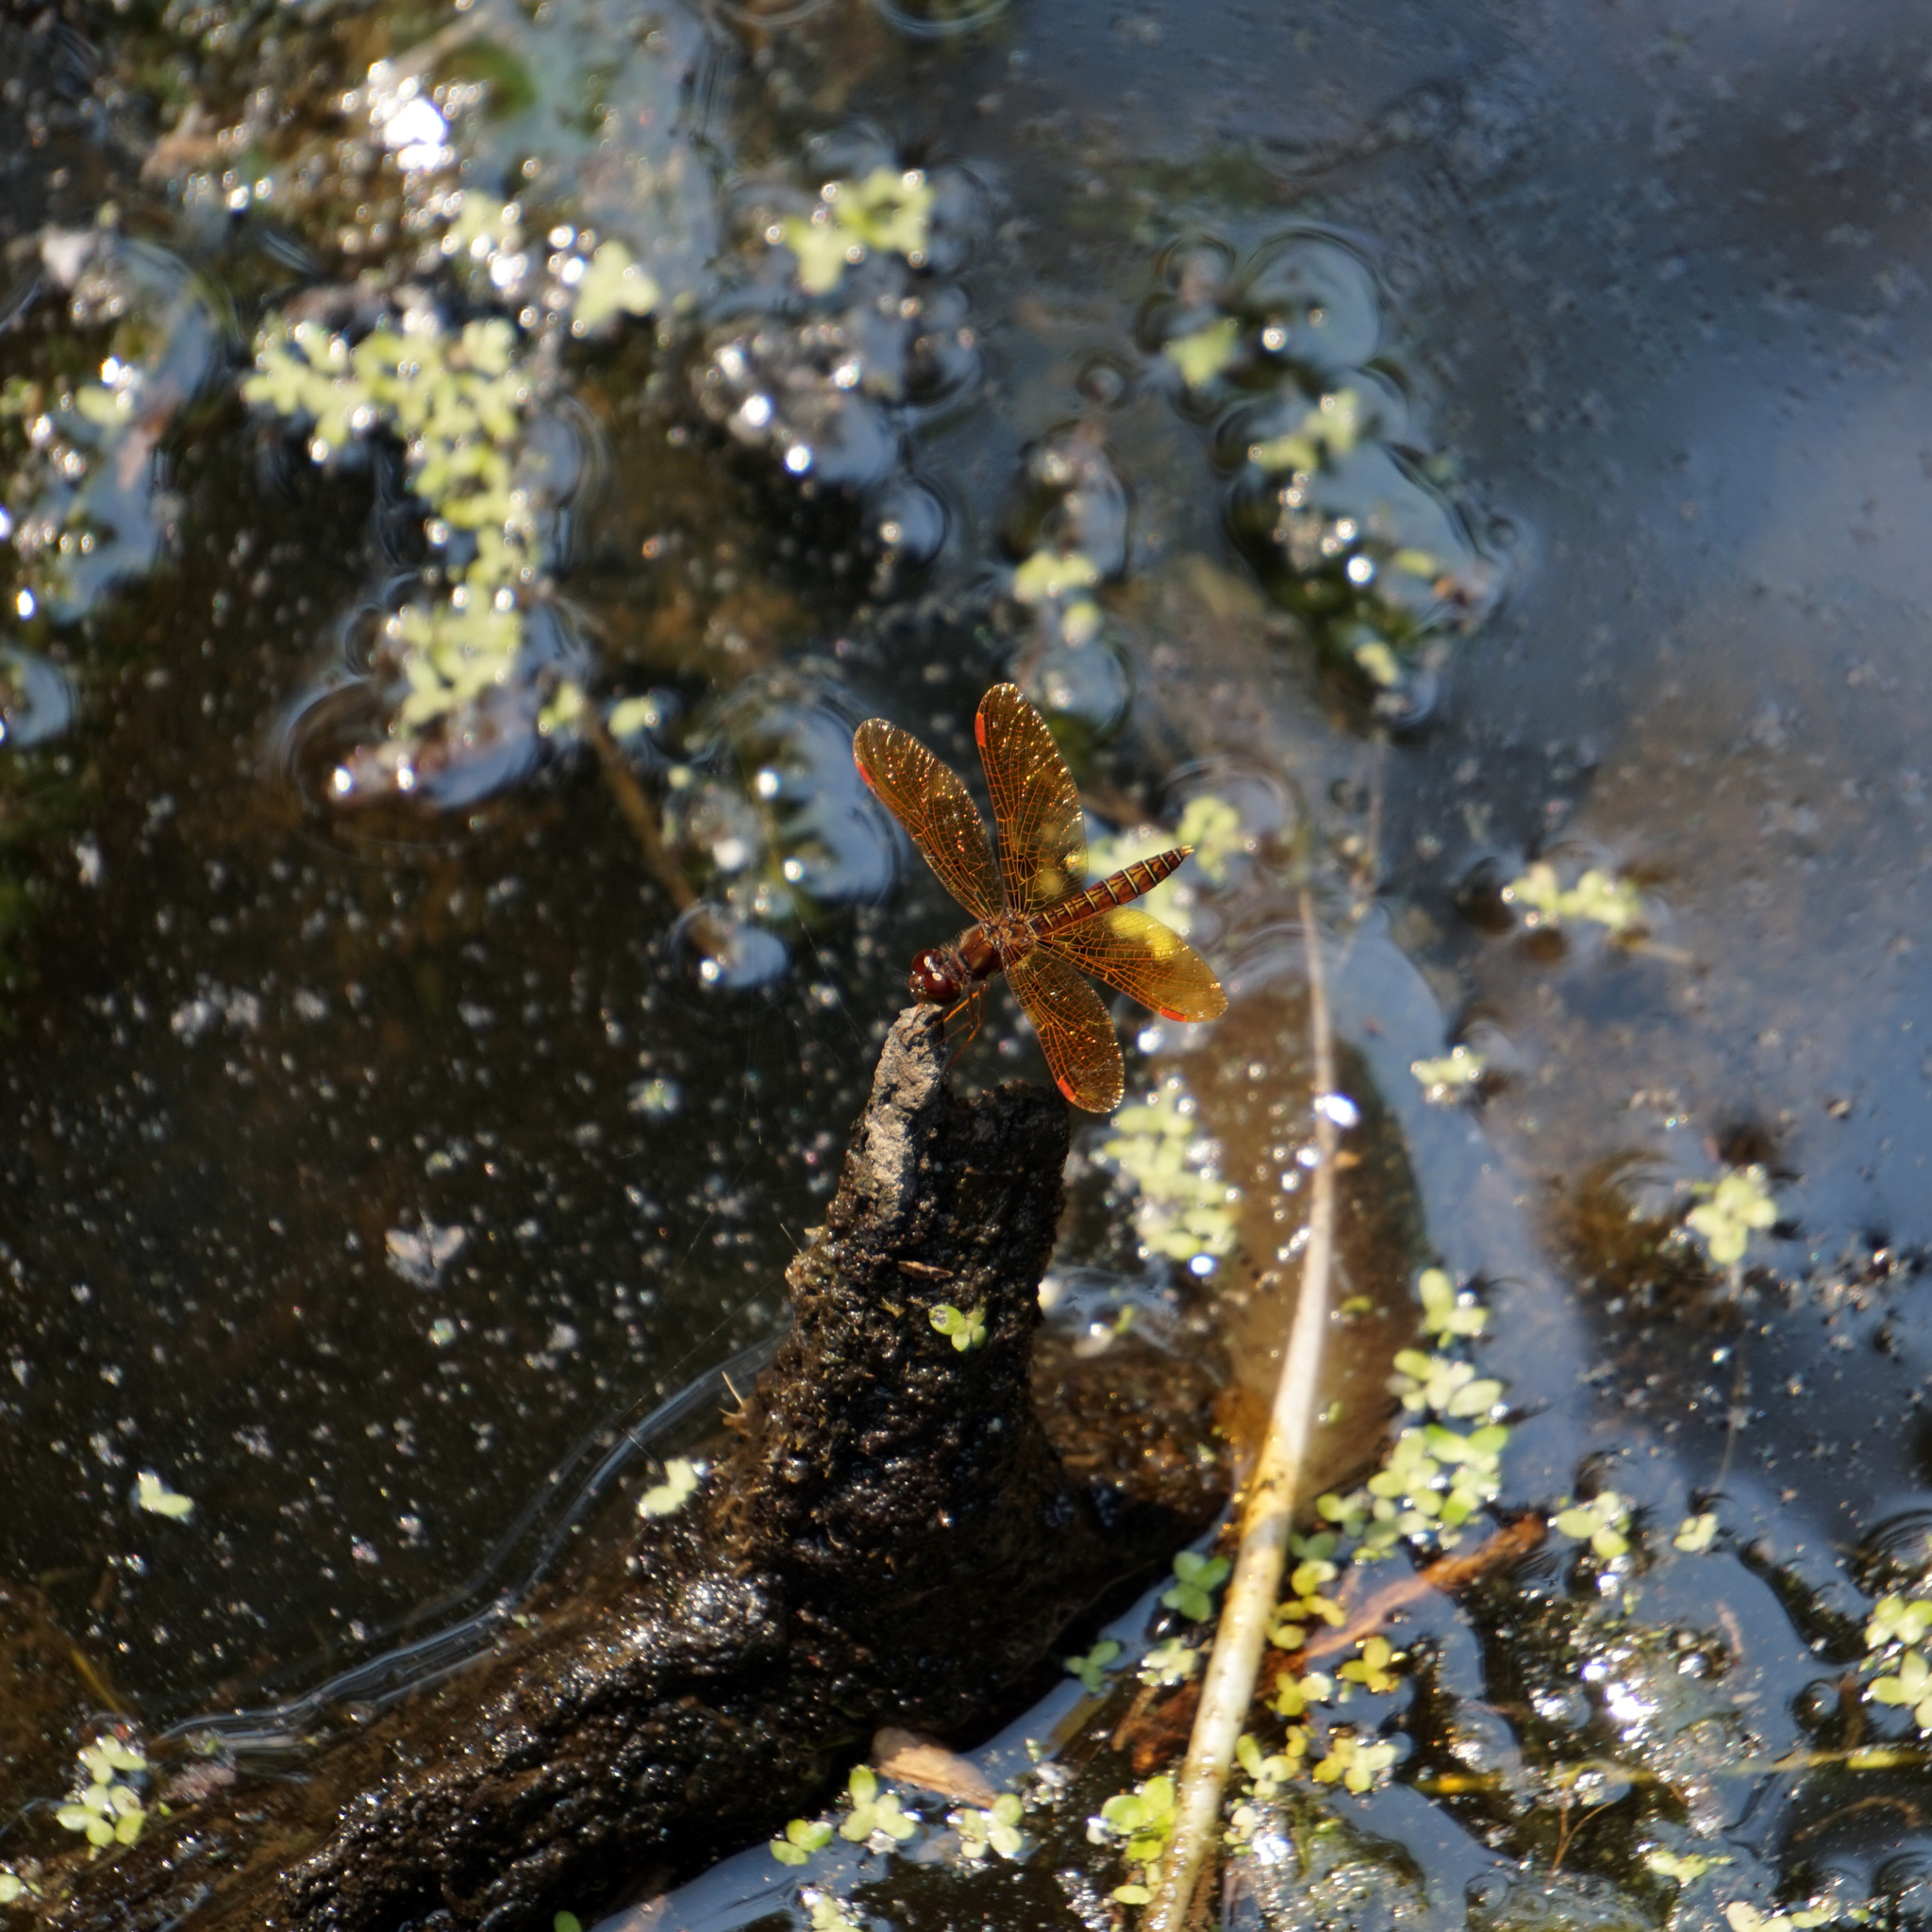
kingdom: Animalia
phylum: Arthropoda
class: Insecta
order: Odonata
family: Libellulidae
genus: Perithemis
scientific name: Perithemis tenera
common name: Eastern amberwing
